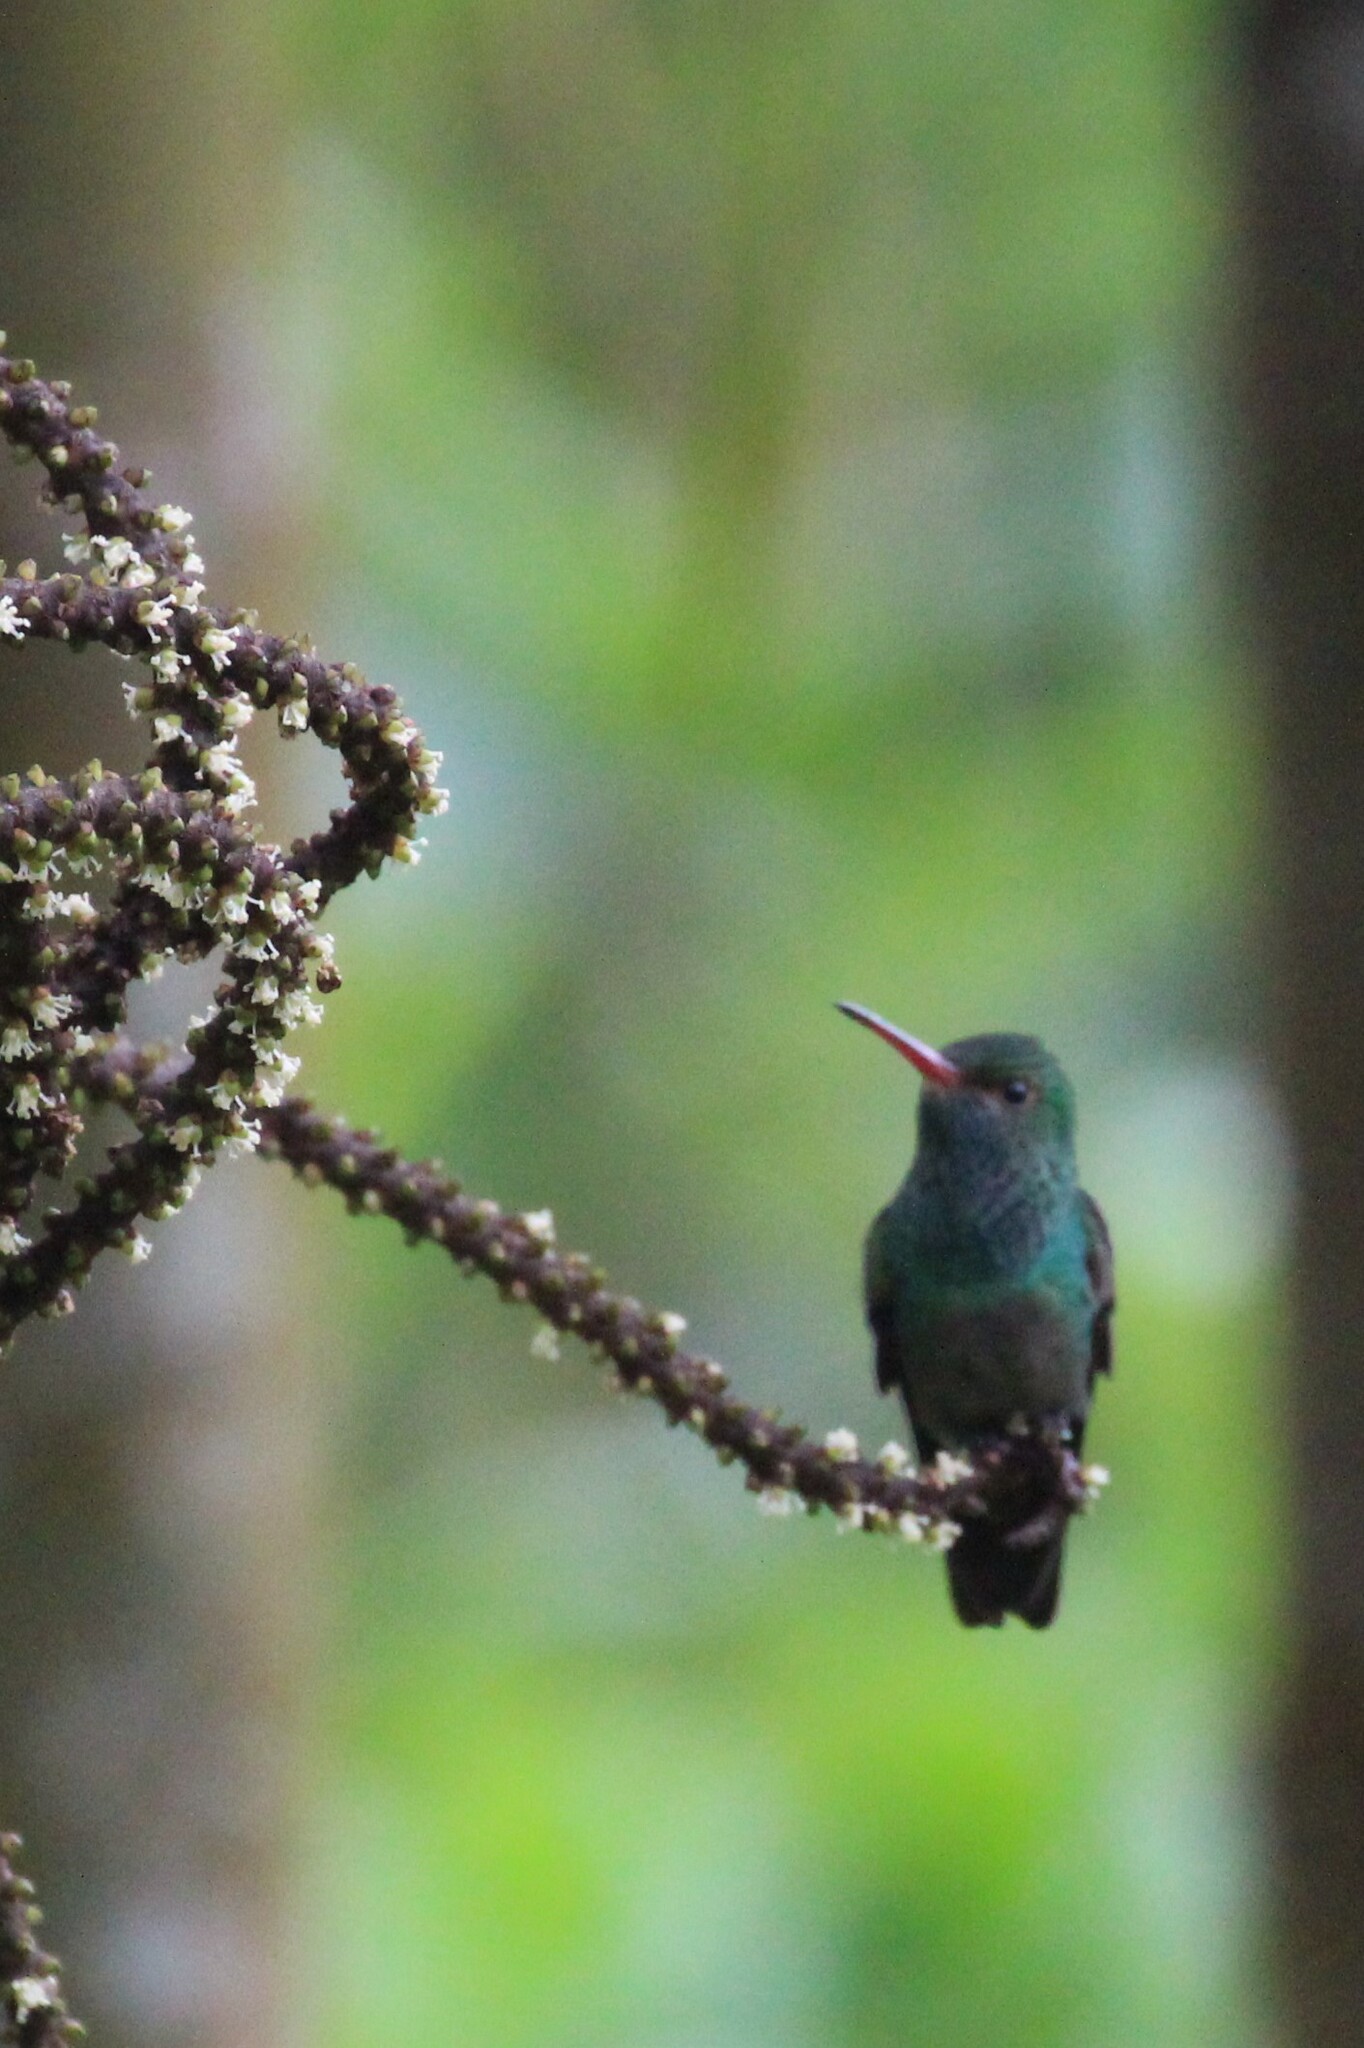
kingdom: Animalia
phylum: Chordata
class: Aves
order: Apodiformes
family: Trochilidae
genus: Amazilia
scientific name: Amazilia tzacatl
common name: Rufous-tailed hummingbird
